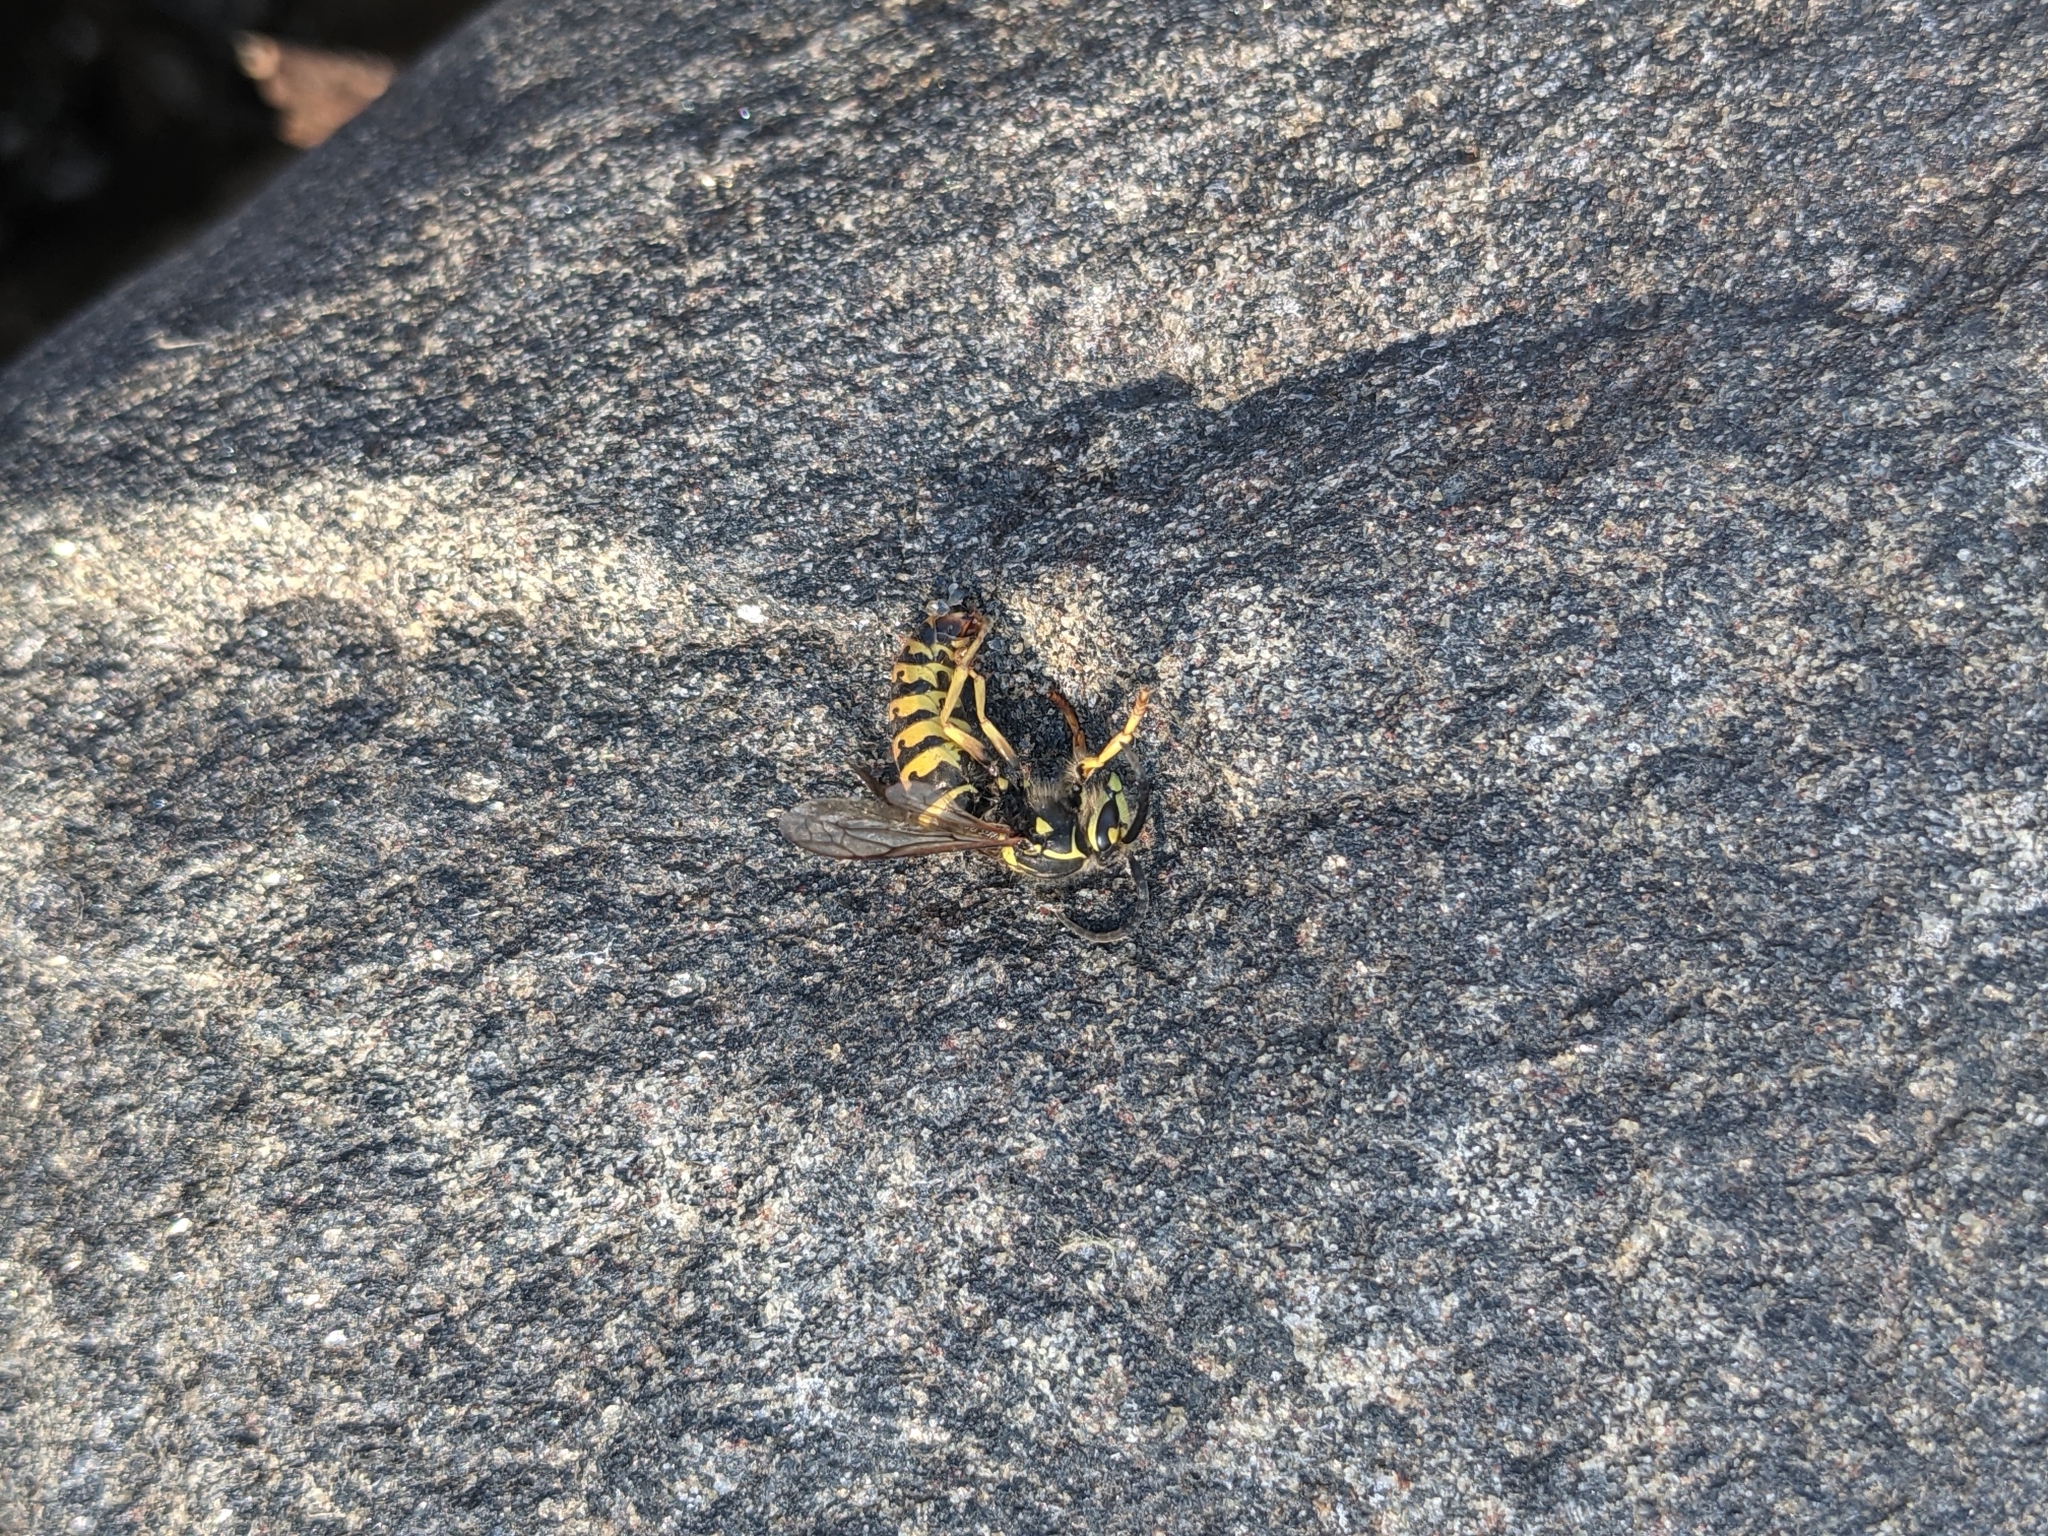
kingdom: Animalia
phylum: Arthropoda
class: Insecta
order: Hymenoptera
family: Vespidae
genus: Dolichovespula
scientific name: Dolichovespula arenaria
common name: Aerial yellowjacket
